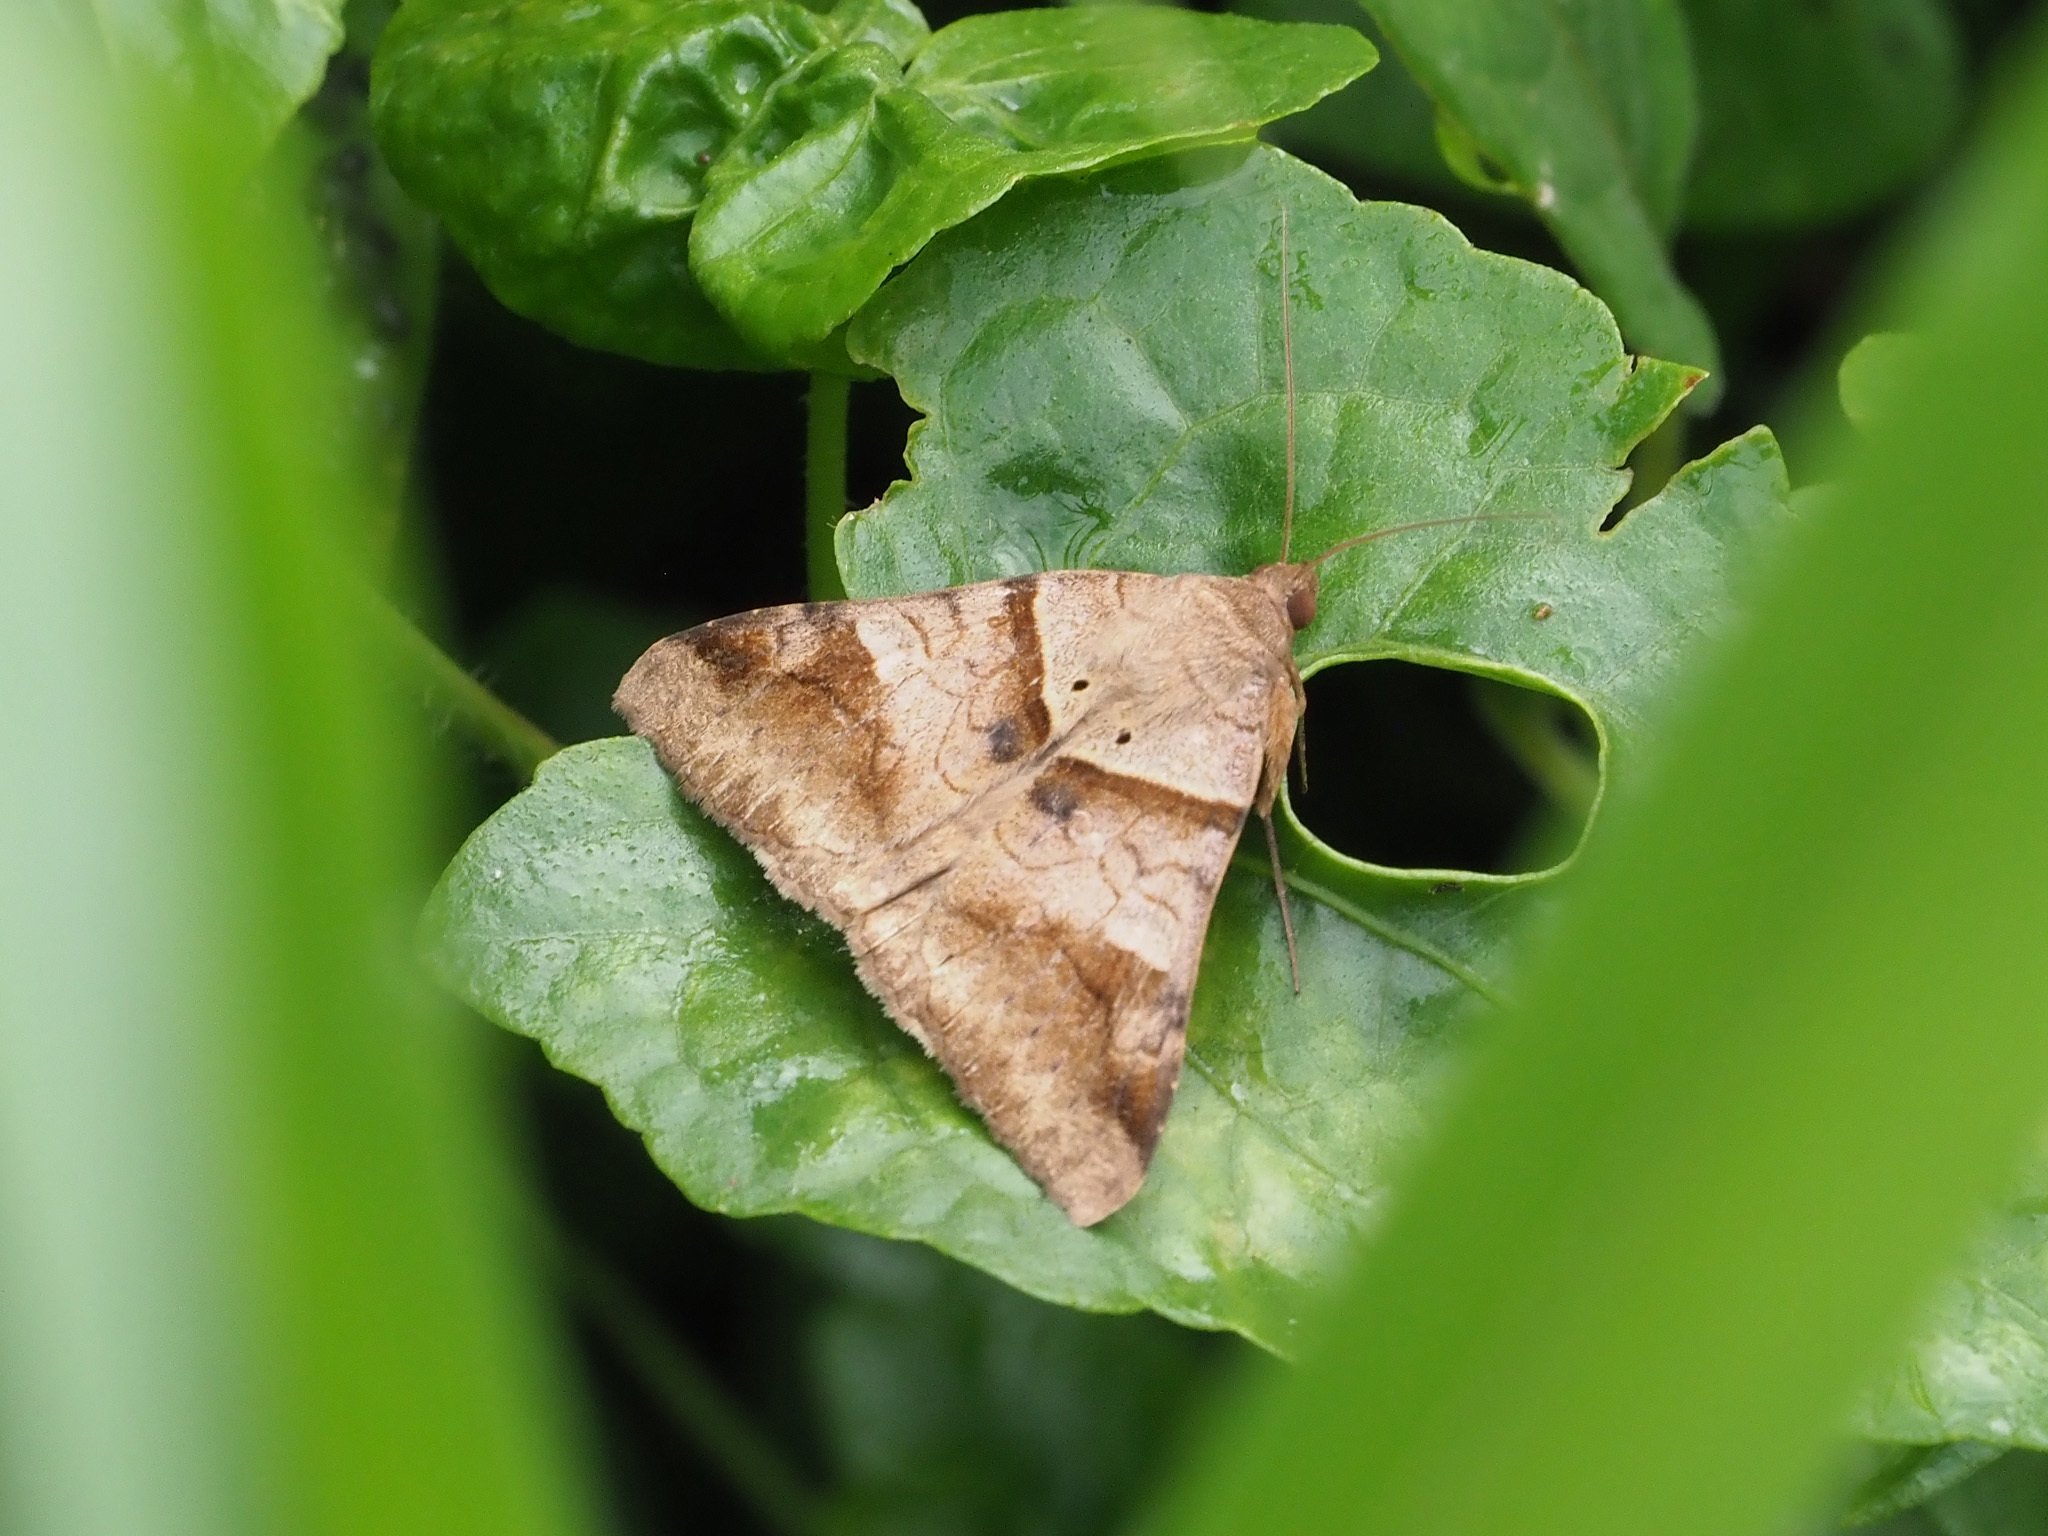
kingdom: Animalia
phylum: Arthropoda
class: Insecta
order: Lepidoptera
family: Erebidae
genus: Mocis
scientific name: Mocis undata
